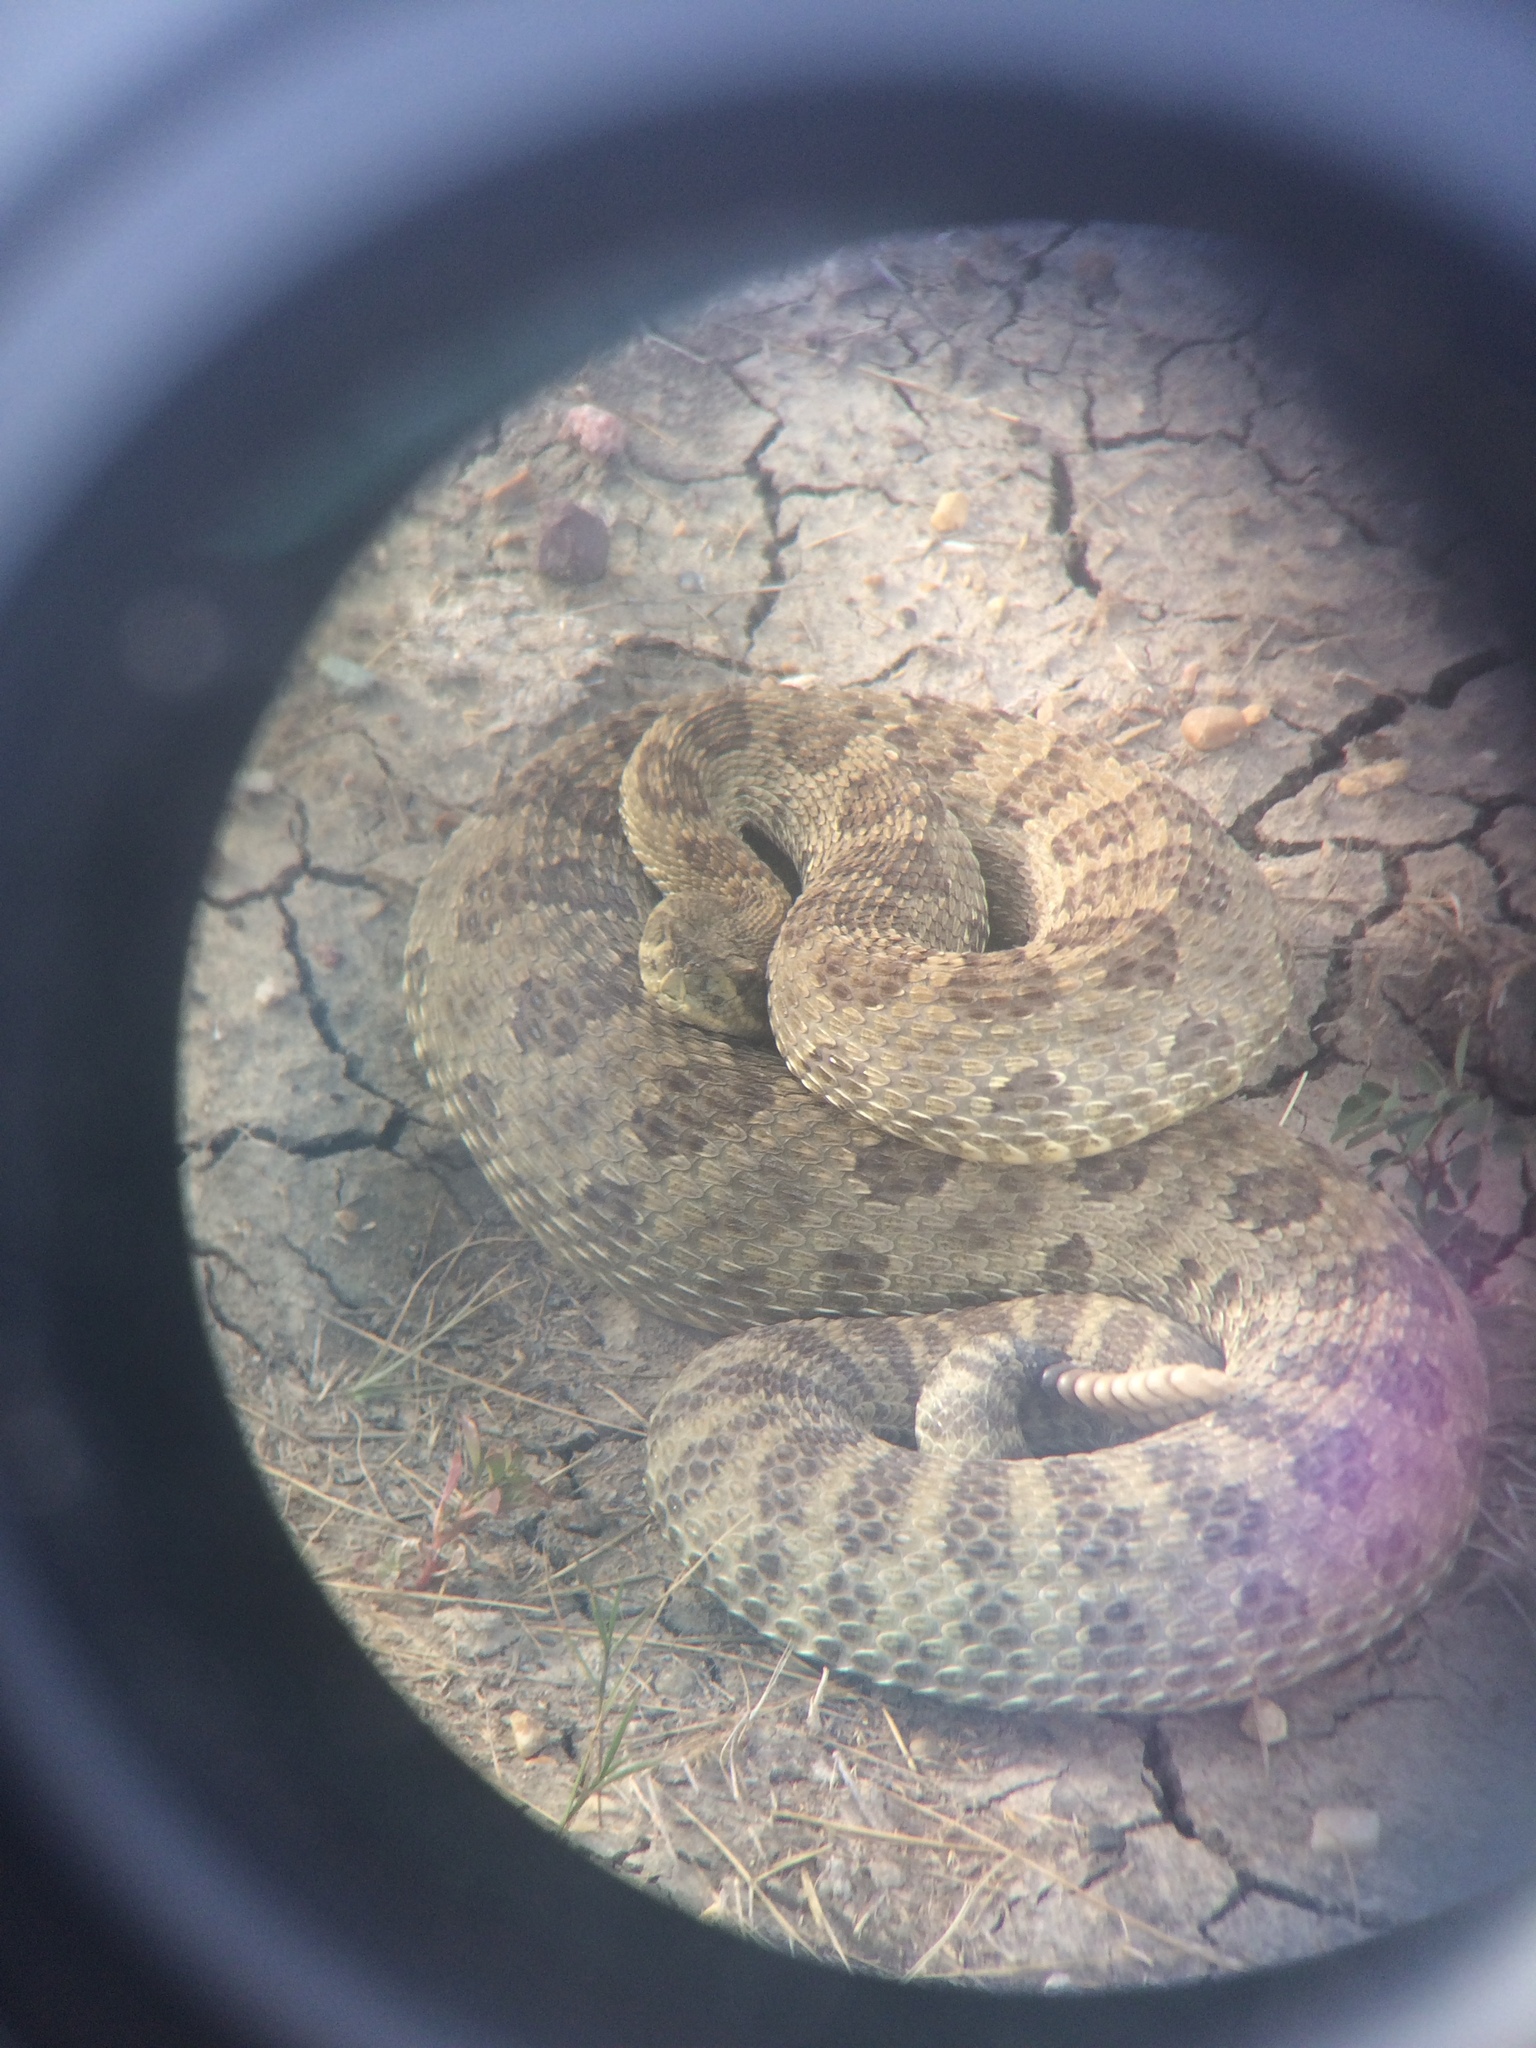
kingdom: Animalia
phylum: Chordata
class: Squamata
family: Viperidae
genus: Crotalus
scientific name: Crotalus viridis
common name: Prairie rattlesnake
